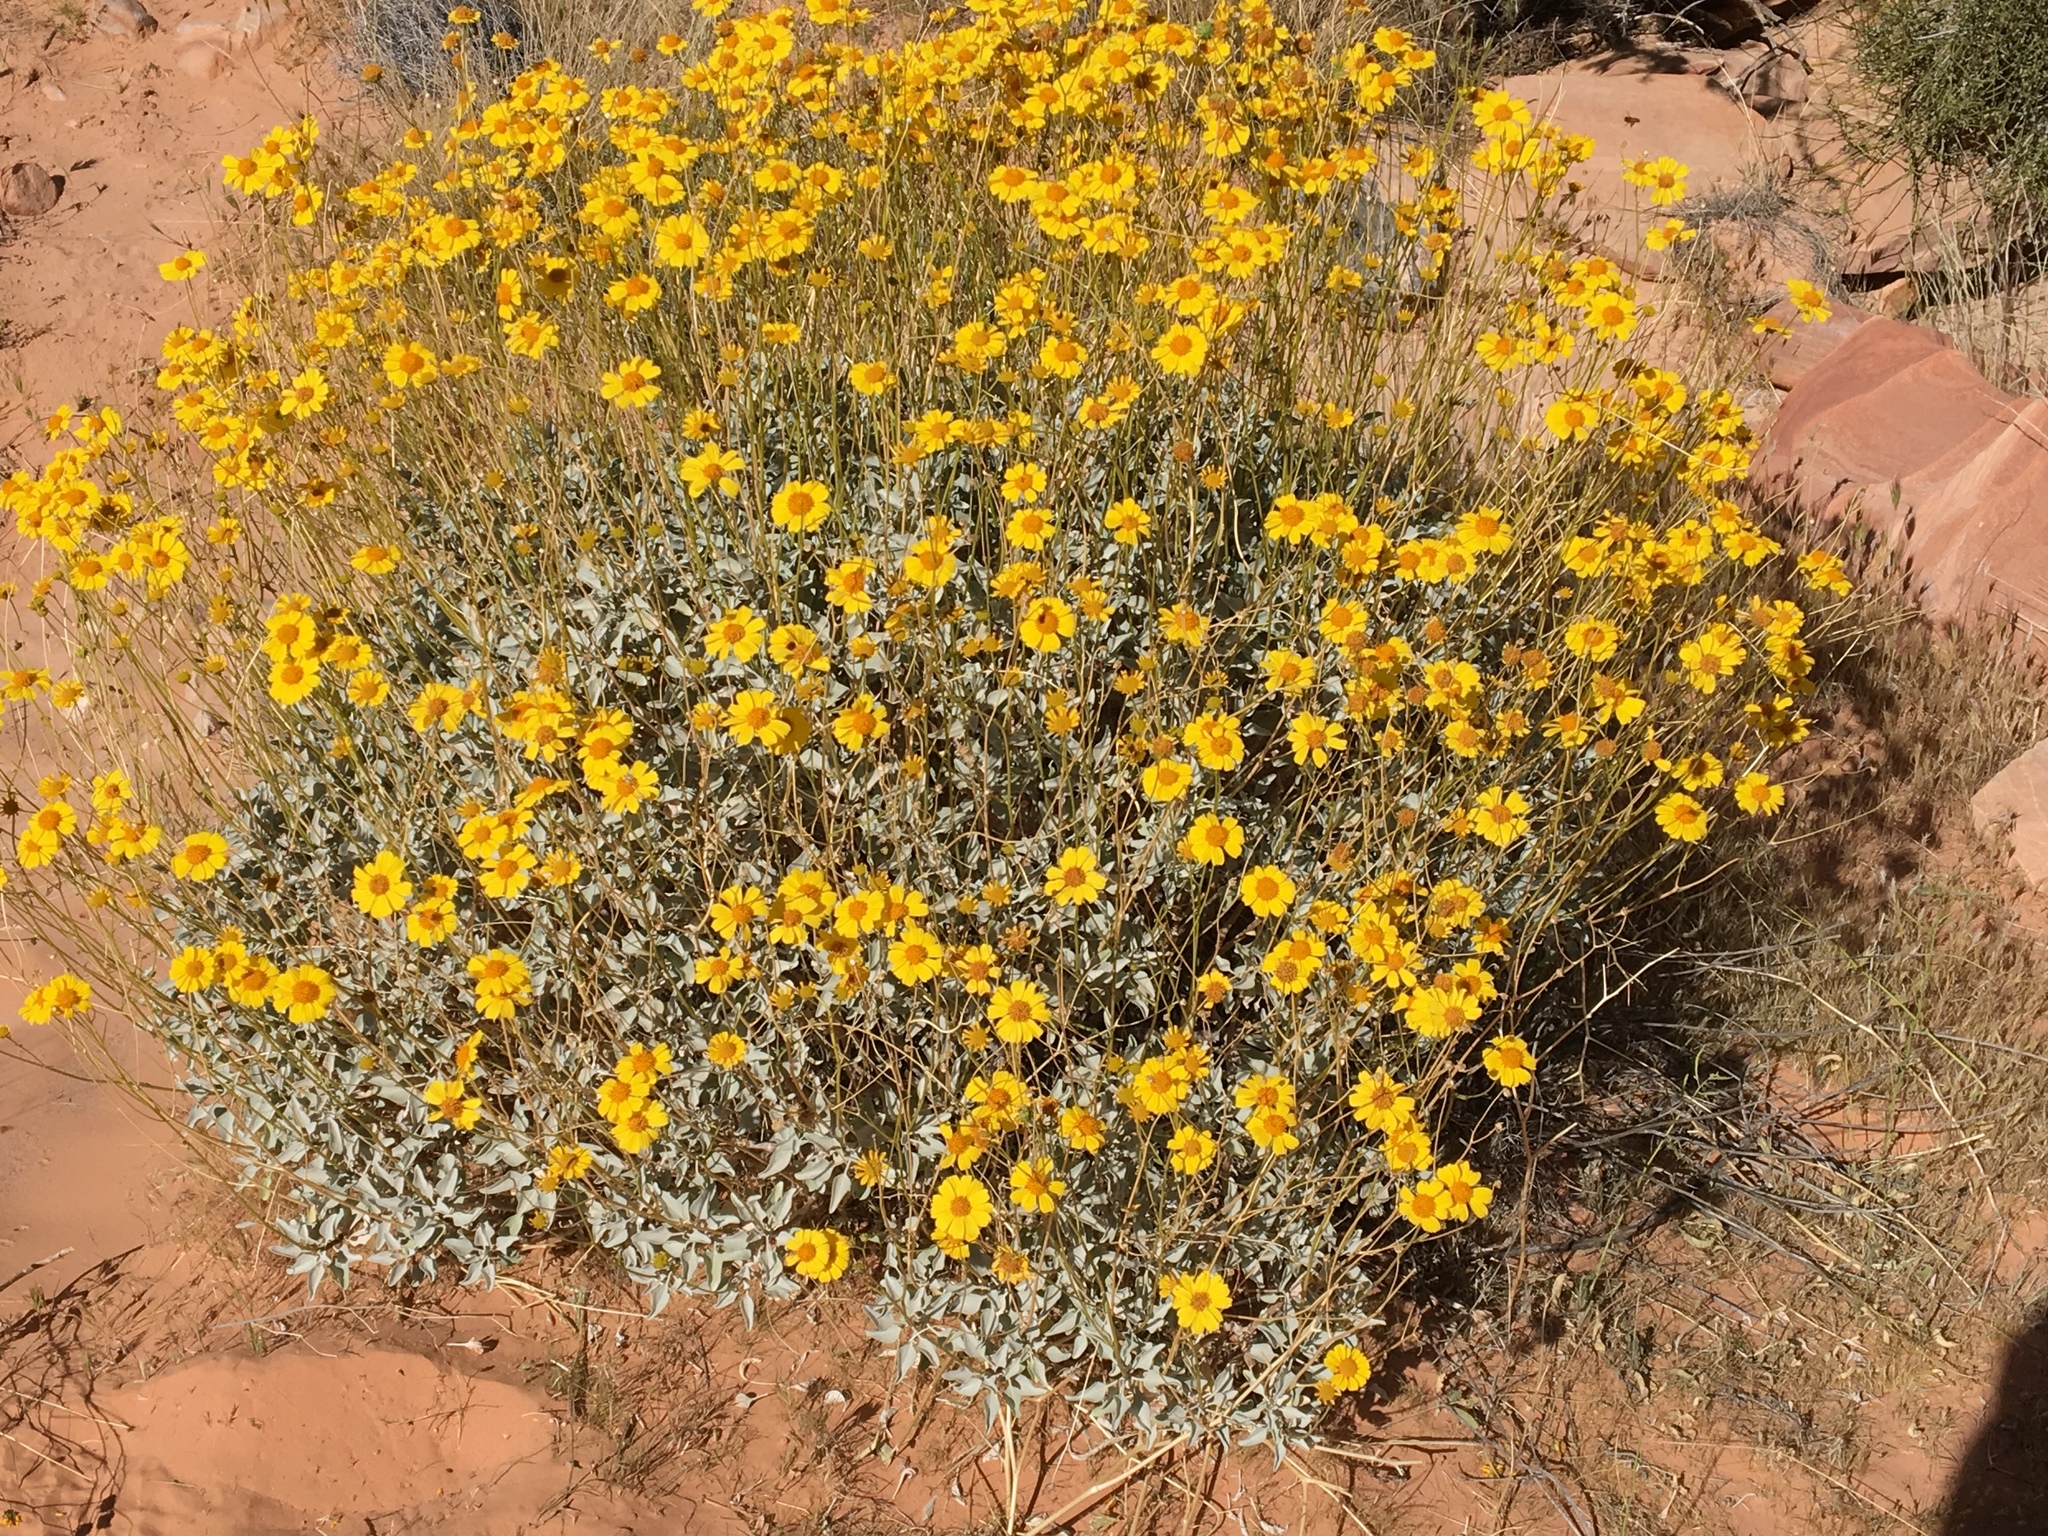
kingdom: Plantae
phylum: Tracheophyta
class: Magnoliopsida
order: Asterales
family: Asteraceae
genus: Encelia
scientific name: Encelia farinosa
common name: Brittlebush
